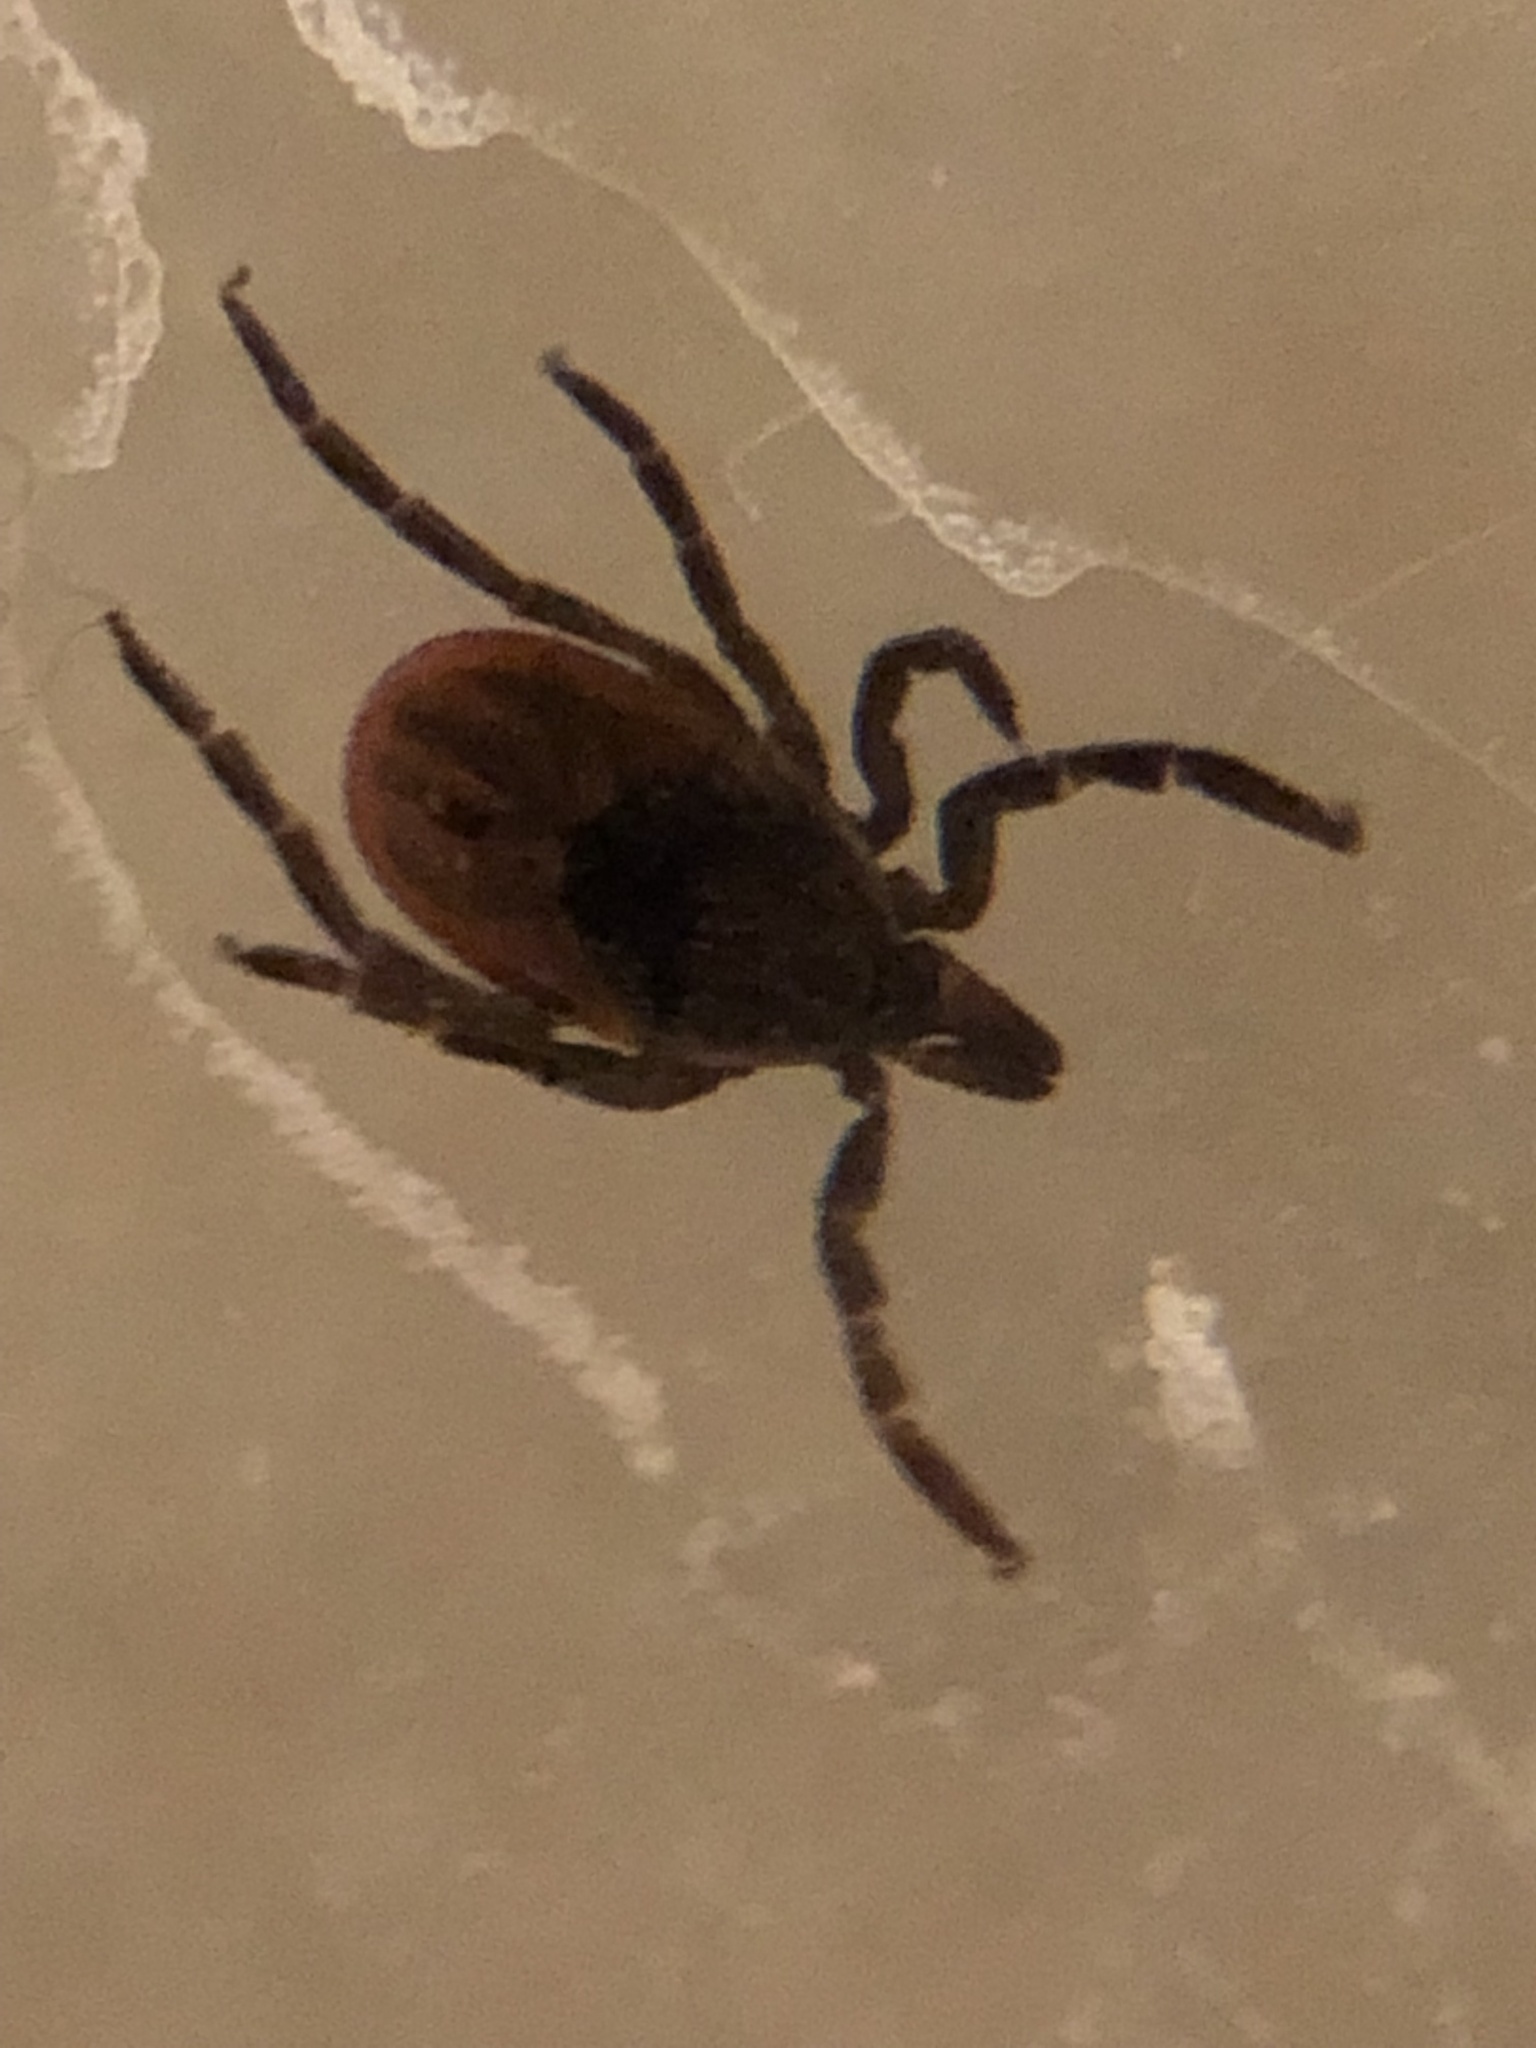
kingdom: Animalia
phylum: Arthropoda
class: Arachnida
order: Ixodida
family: Ixodidae
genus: Ixodes
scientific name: Ixodes scapularis
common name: Black legged tick
